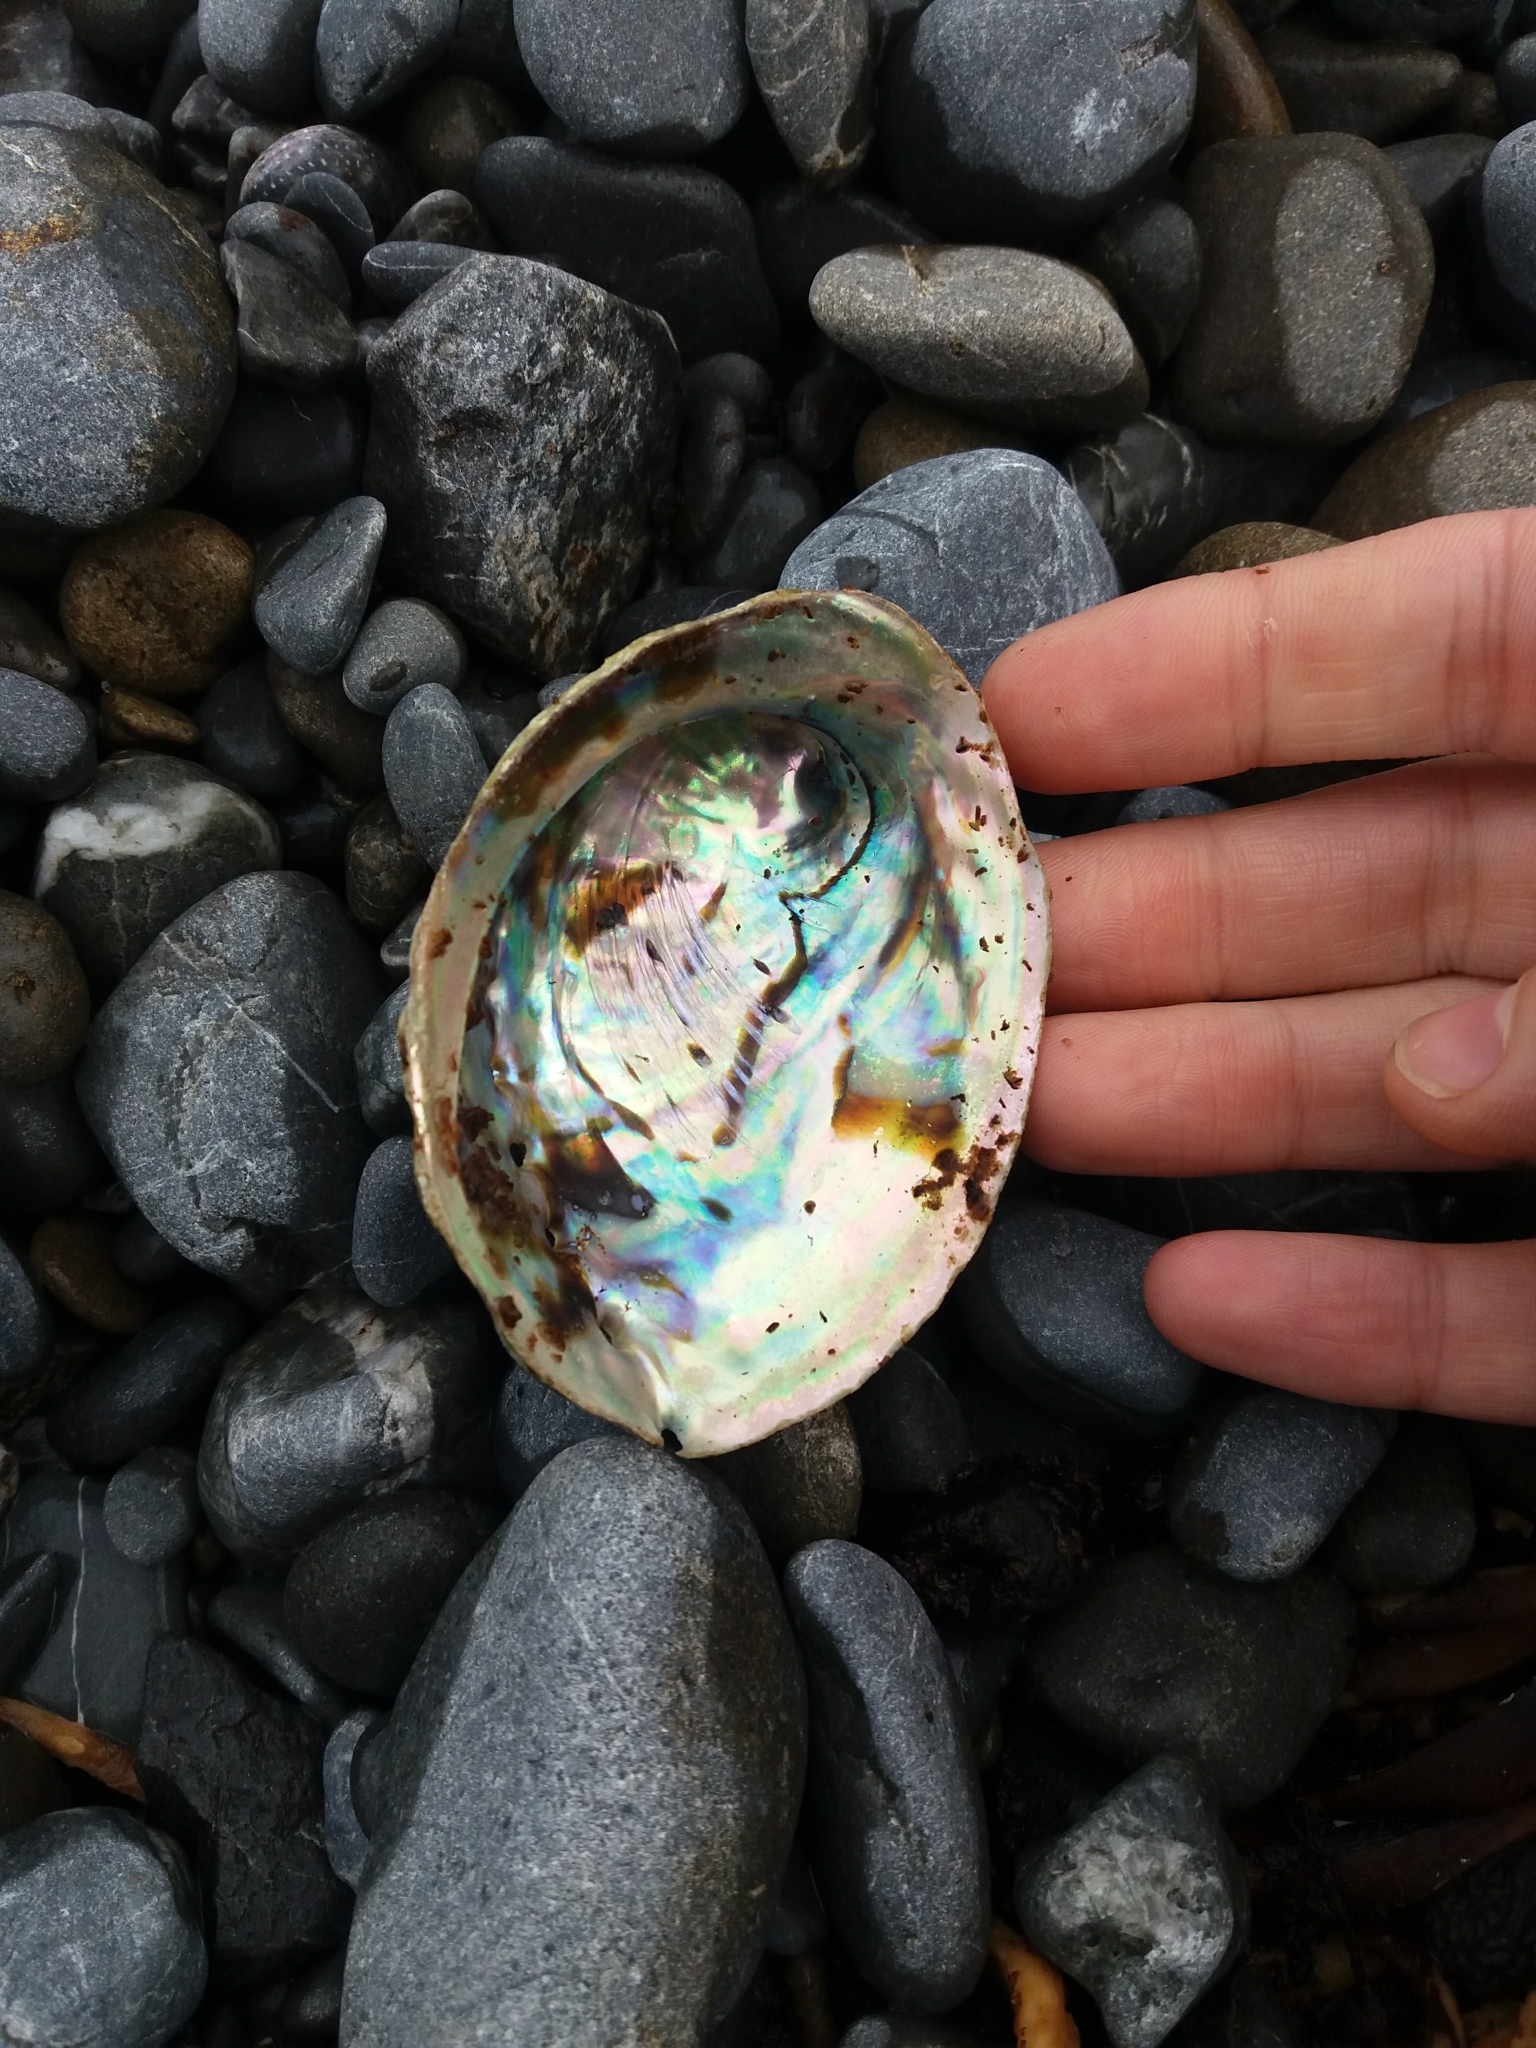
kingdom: Animalia
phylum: Mollusca
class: Gastropoda
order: Lepetellida
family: Haliotidae
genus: Haliotis
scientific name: Haliotis iris
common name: Abalone
